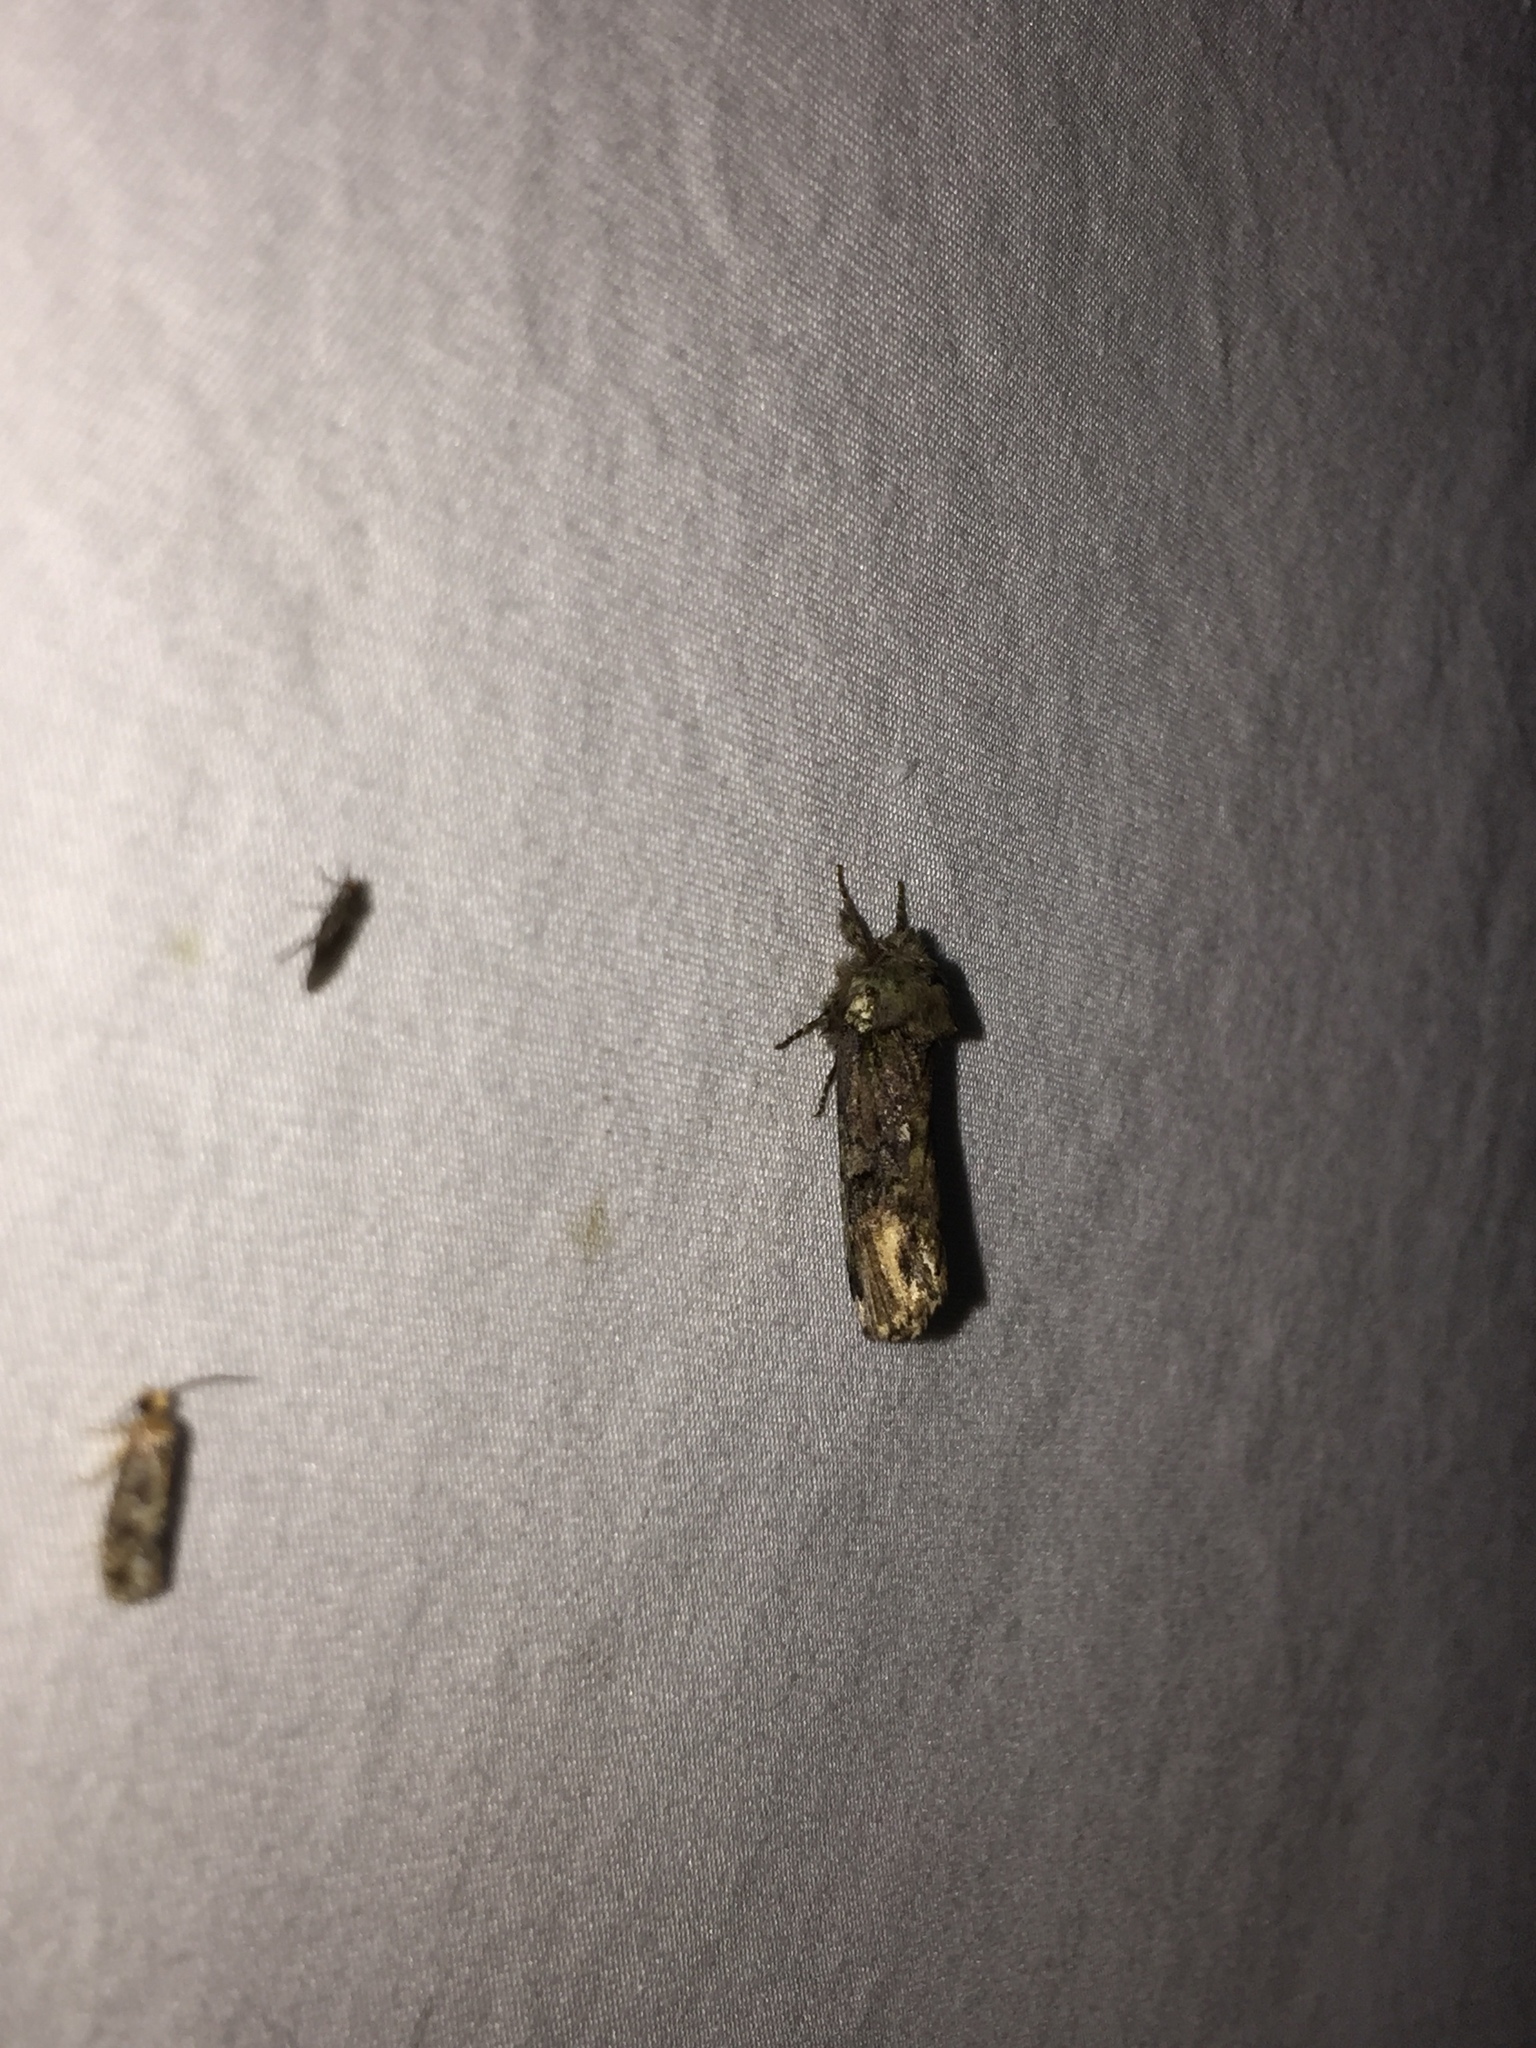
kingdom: Animalia
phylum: Arthropoda
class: Insecta
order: Lepidoptera
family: Notodontidae
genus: Schizura
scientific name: Schizura
